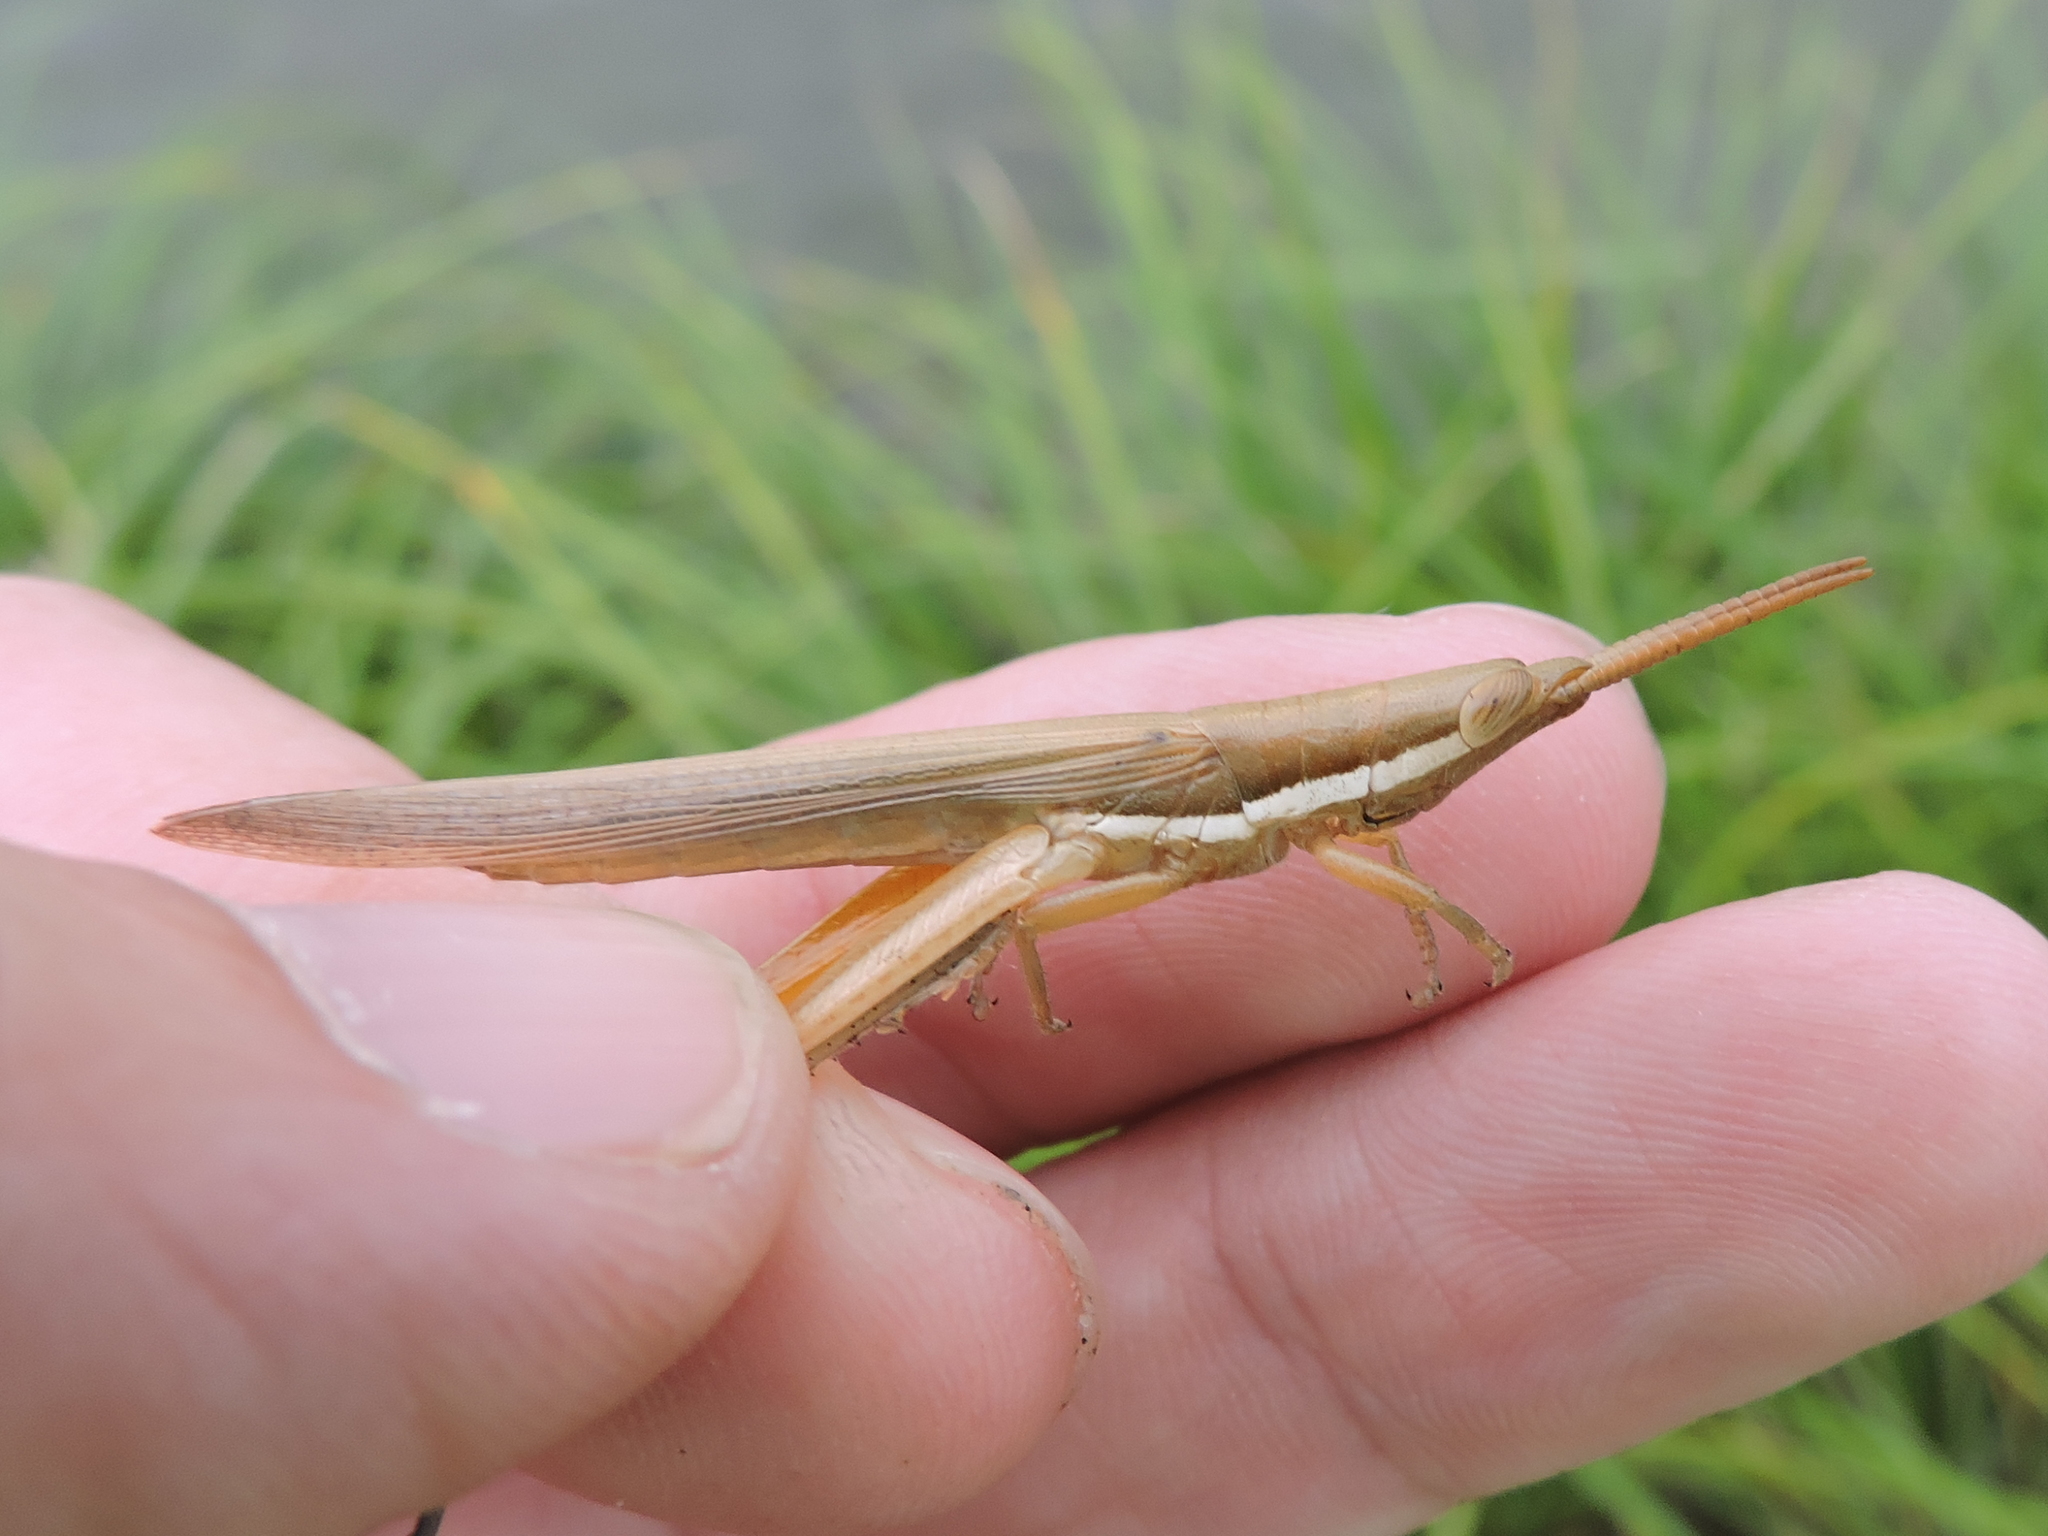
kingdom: Animalia
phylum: Arthropoda
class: Insecta
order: Orthoptera
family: Acrididae
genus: Leptysma
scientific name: Leptysma marginicollis
